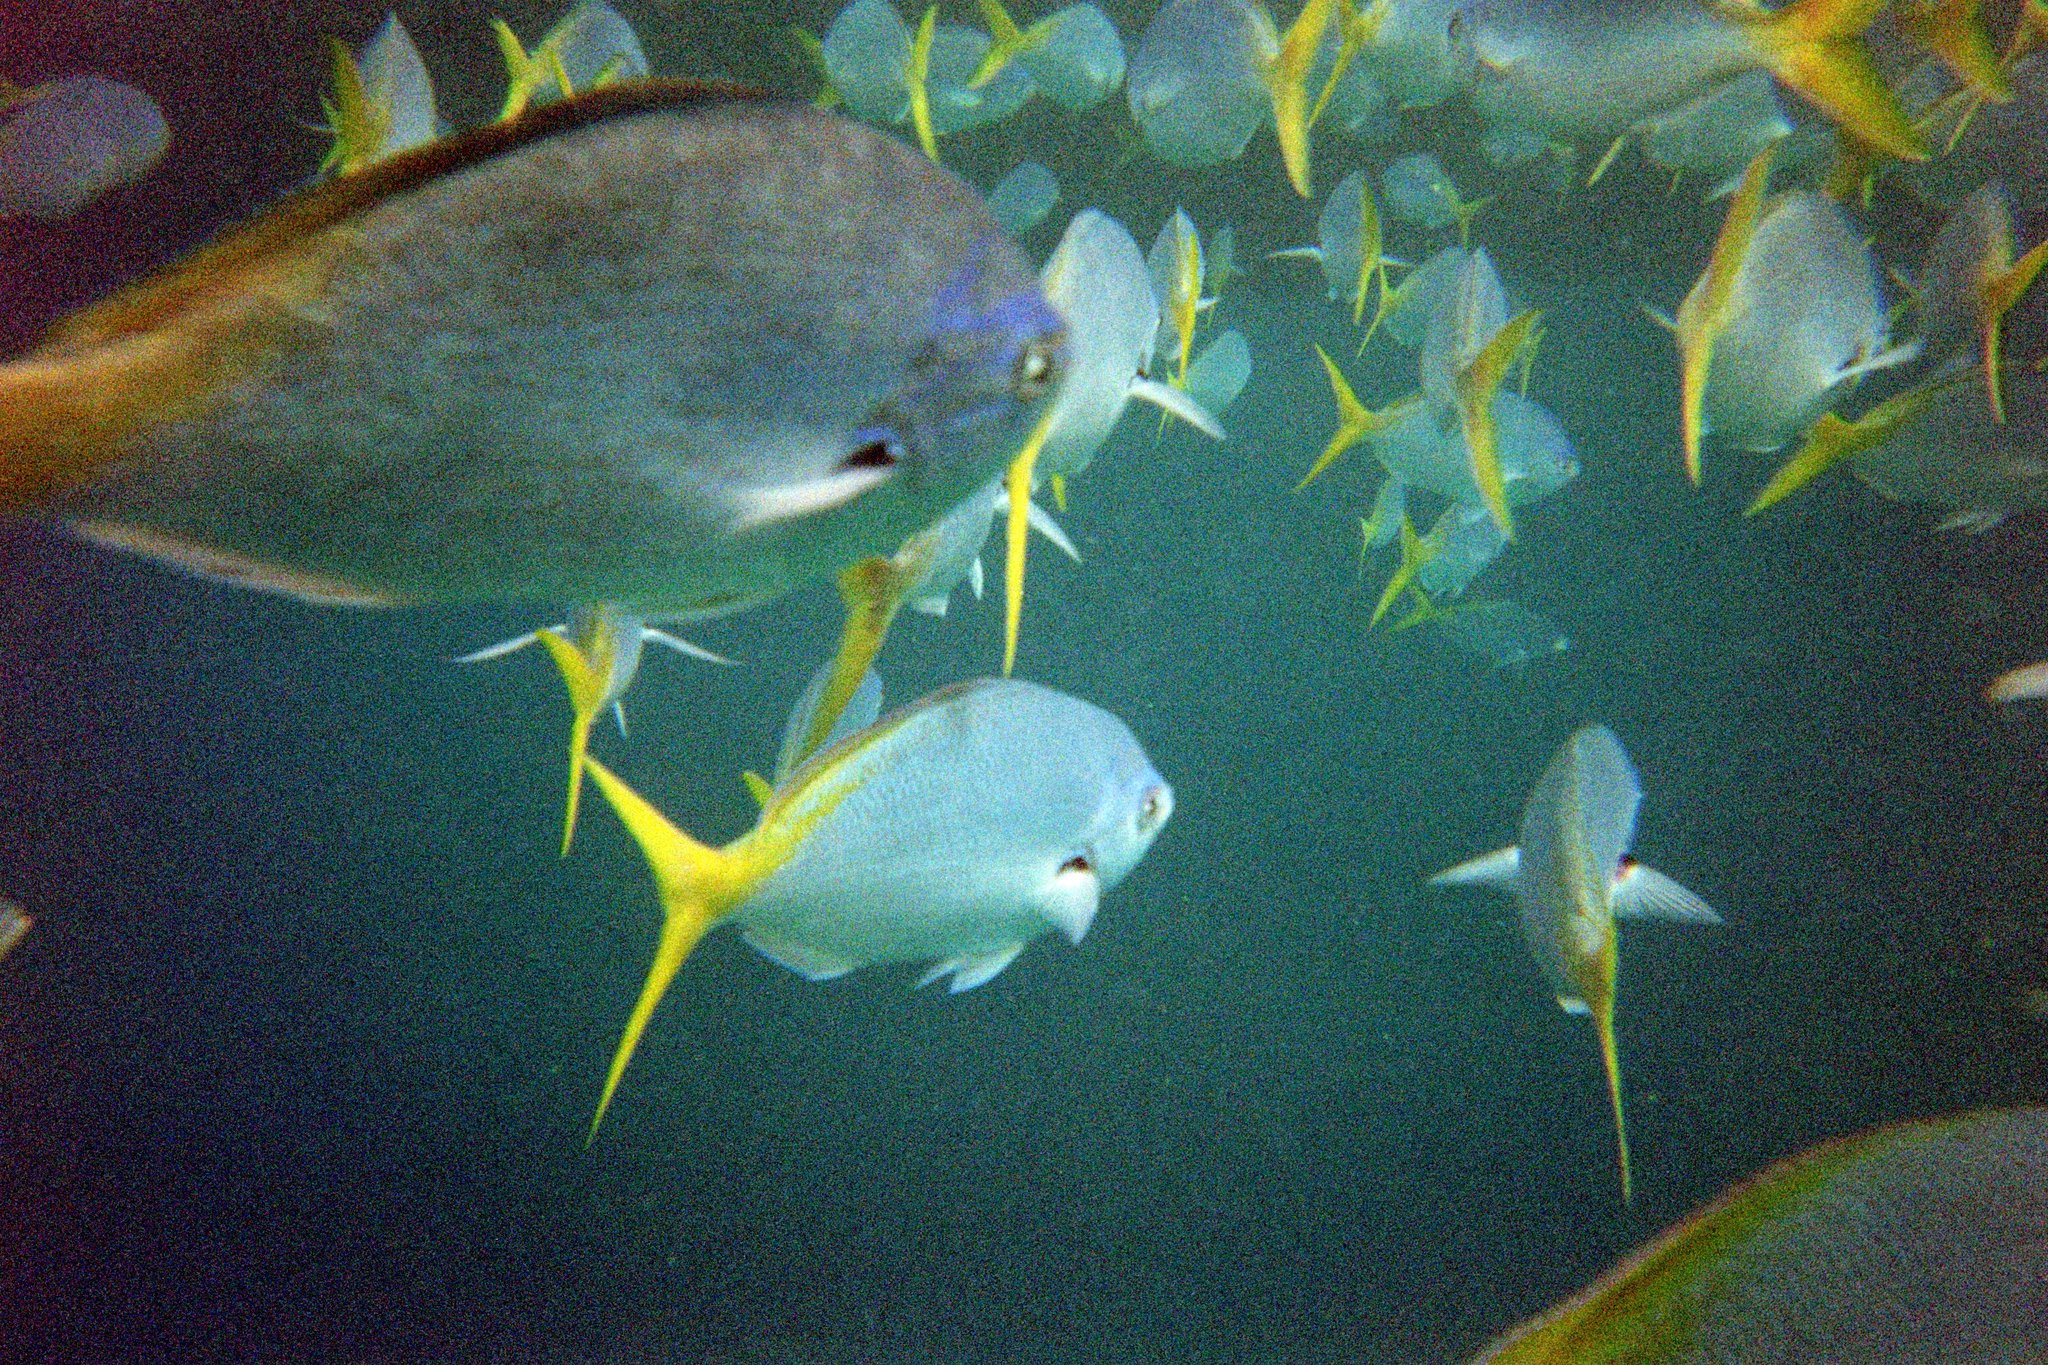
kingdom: Animalia
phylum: Chordata
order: Perciformes
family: Caesionidae
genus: Caesio
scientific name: Caesio cuning
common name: Red-bellied fusilier
